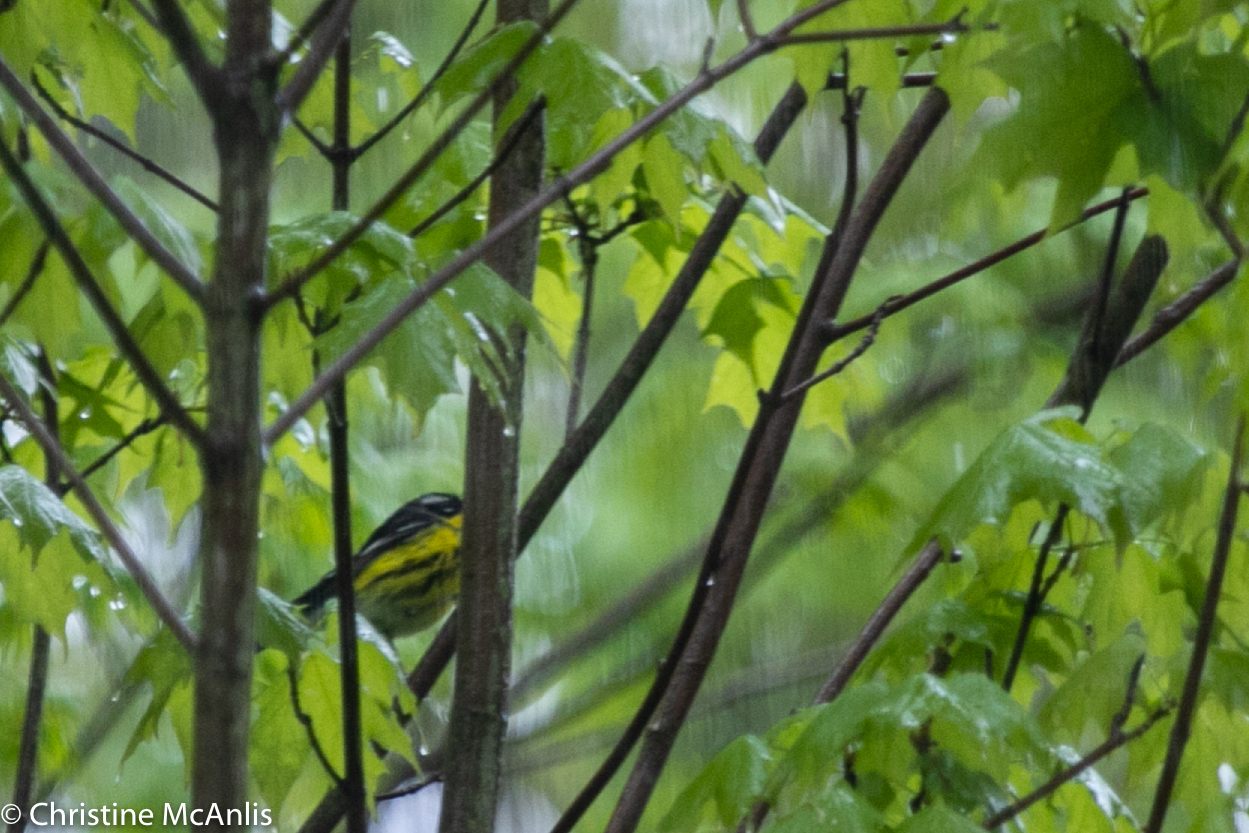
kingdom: Animalia
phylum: Chordata
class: Aves
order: Passeriformes
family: Parulidae
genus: Setophaga
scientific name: Setophaga magnolia
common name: Magnolia warbler
